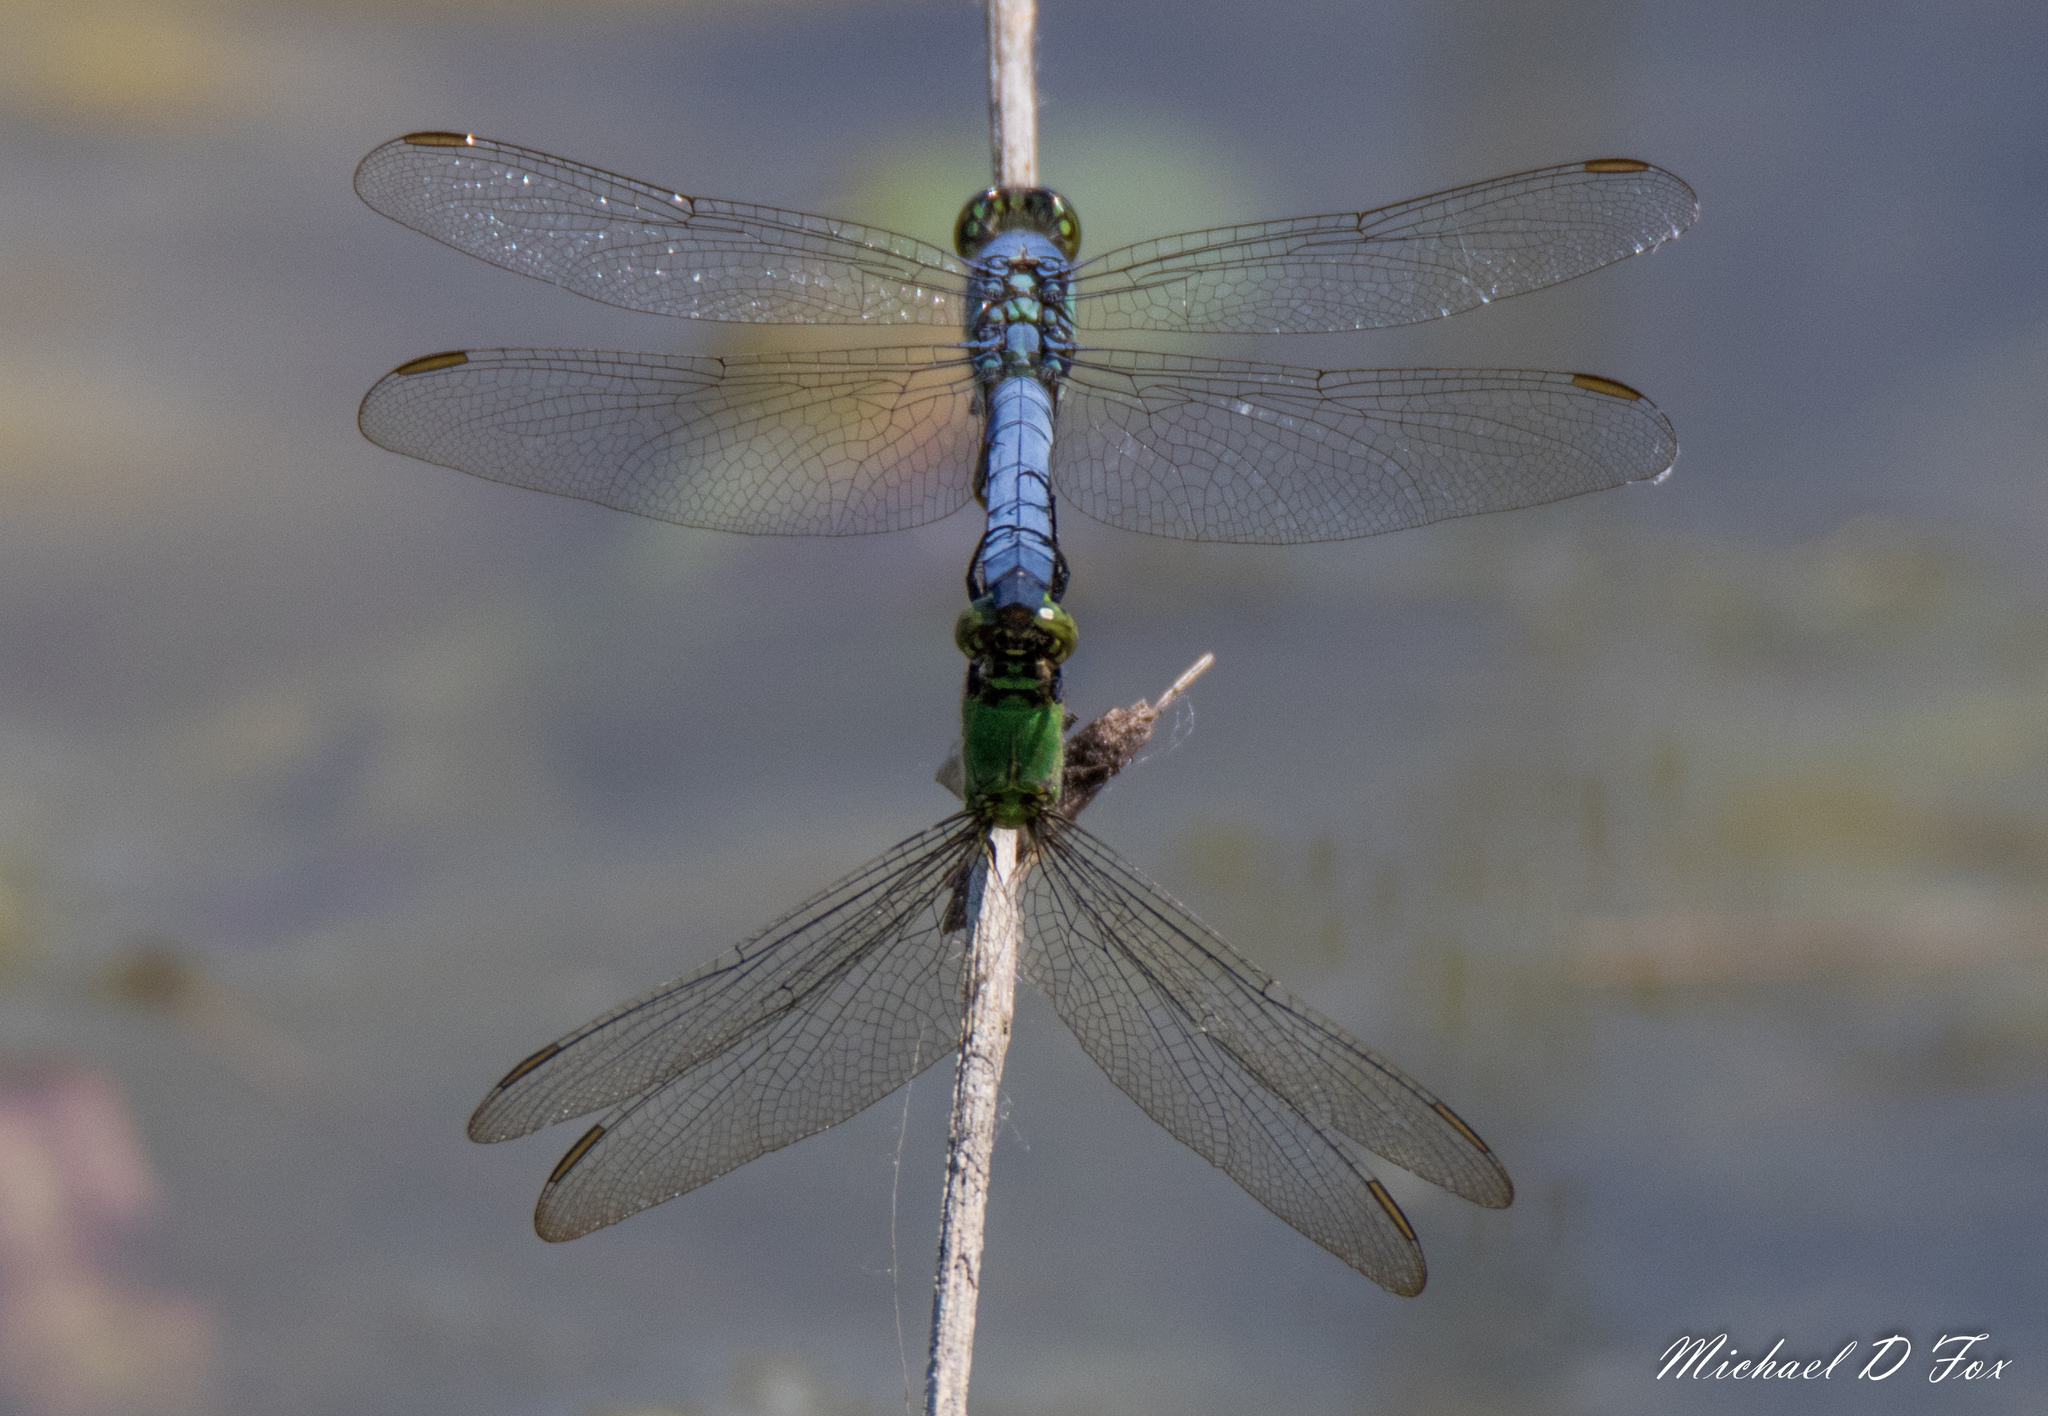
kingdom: Animalia
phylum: Arthropoda
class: Insecta
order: Odonata
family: Libellulidae
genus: Erythemis
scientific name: Erythemis simplicicollis
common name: Eastern pondhawk
